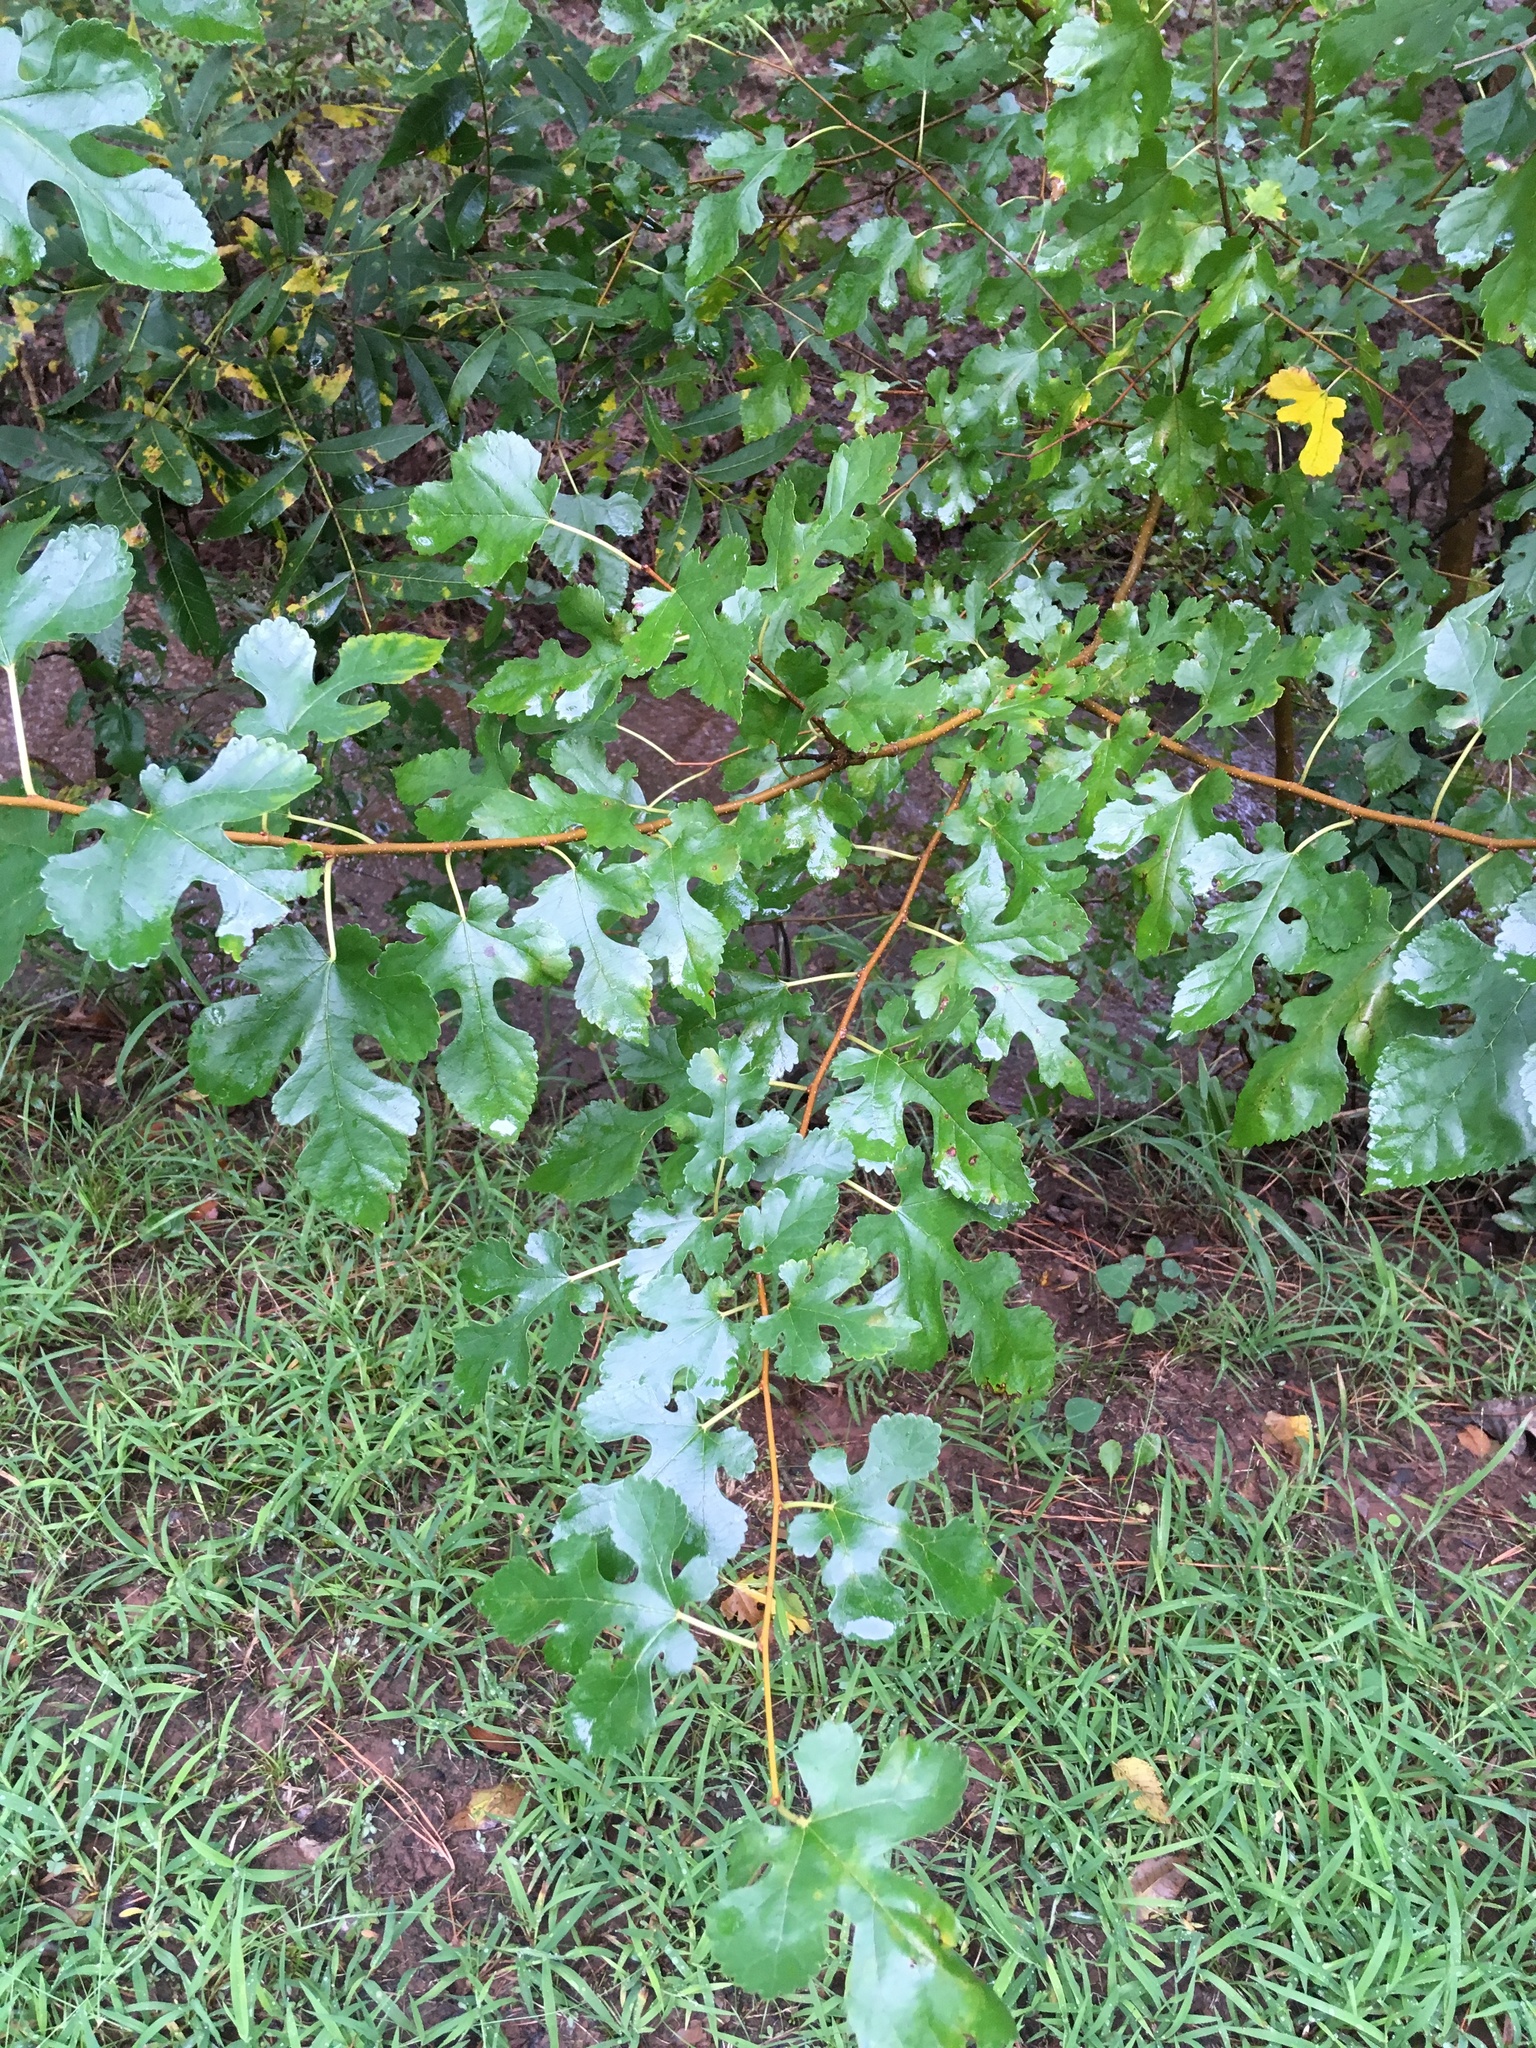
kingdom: Plantae
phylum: Tracheophyta
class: Magnoliopsida
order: Rosales
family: Moraceae
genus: Morus
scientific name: Morus alba
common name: White mulberry
